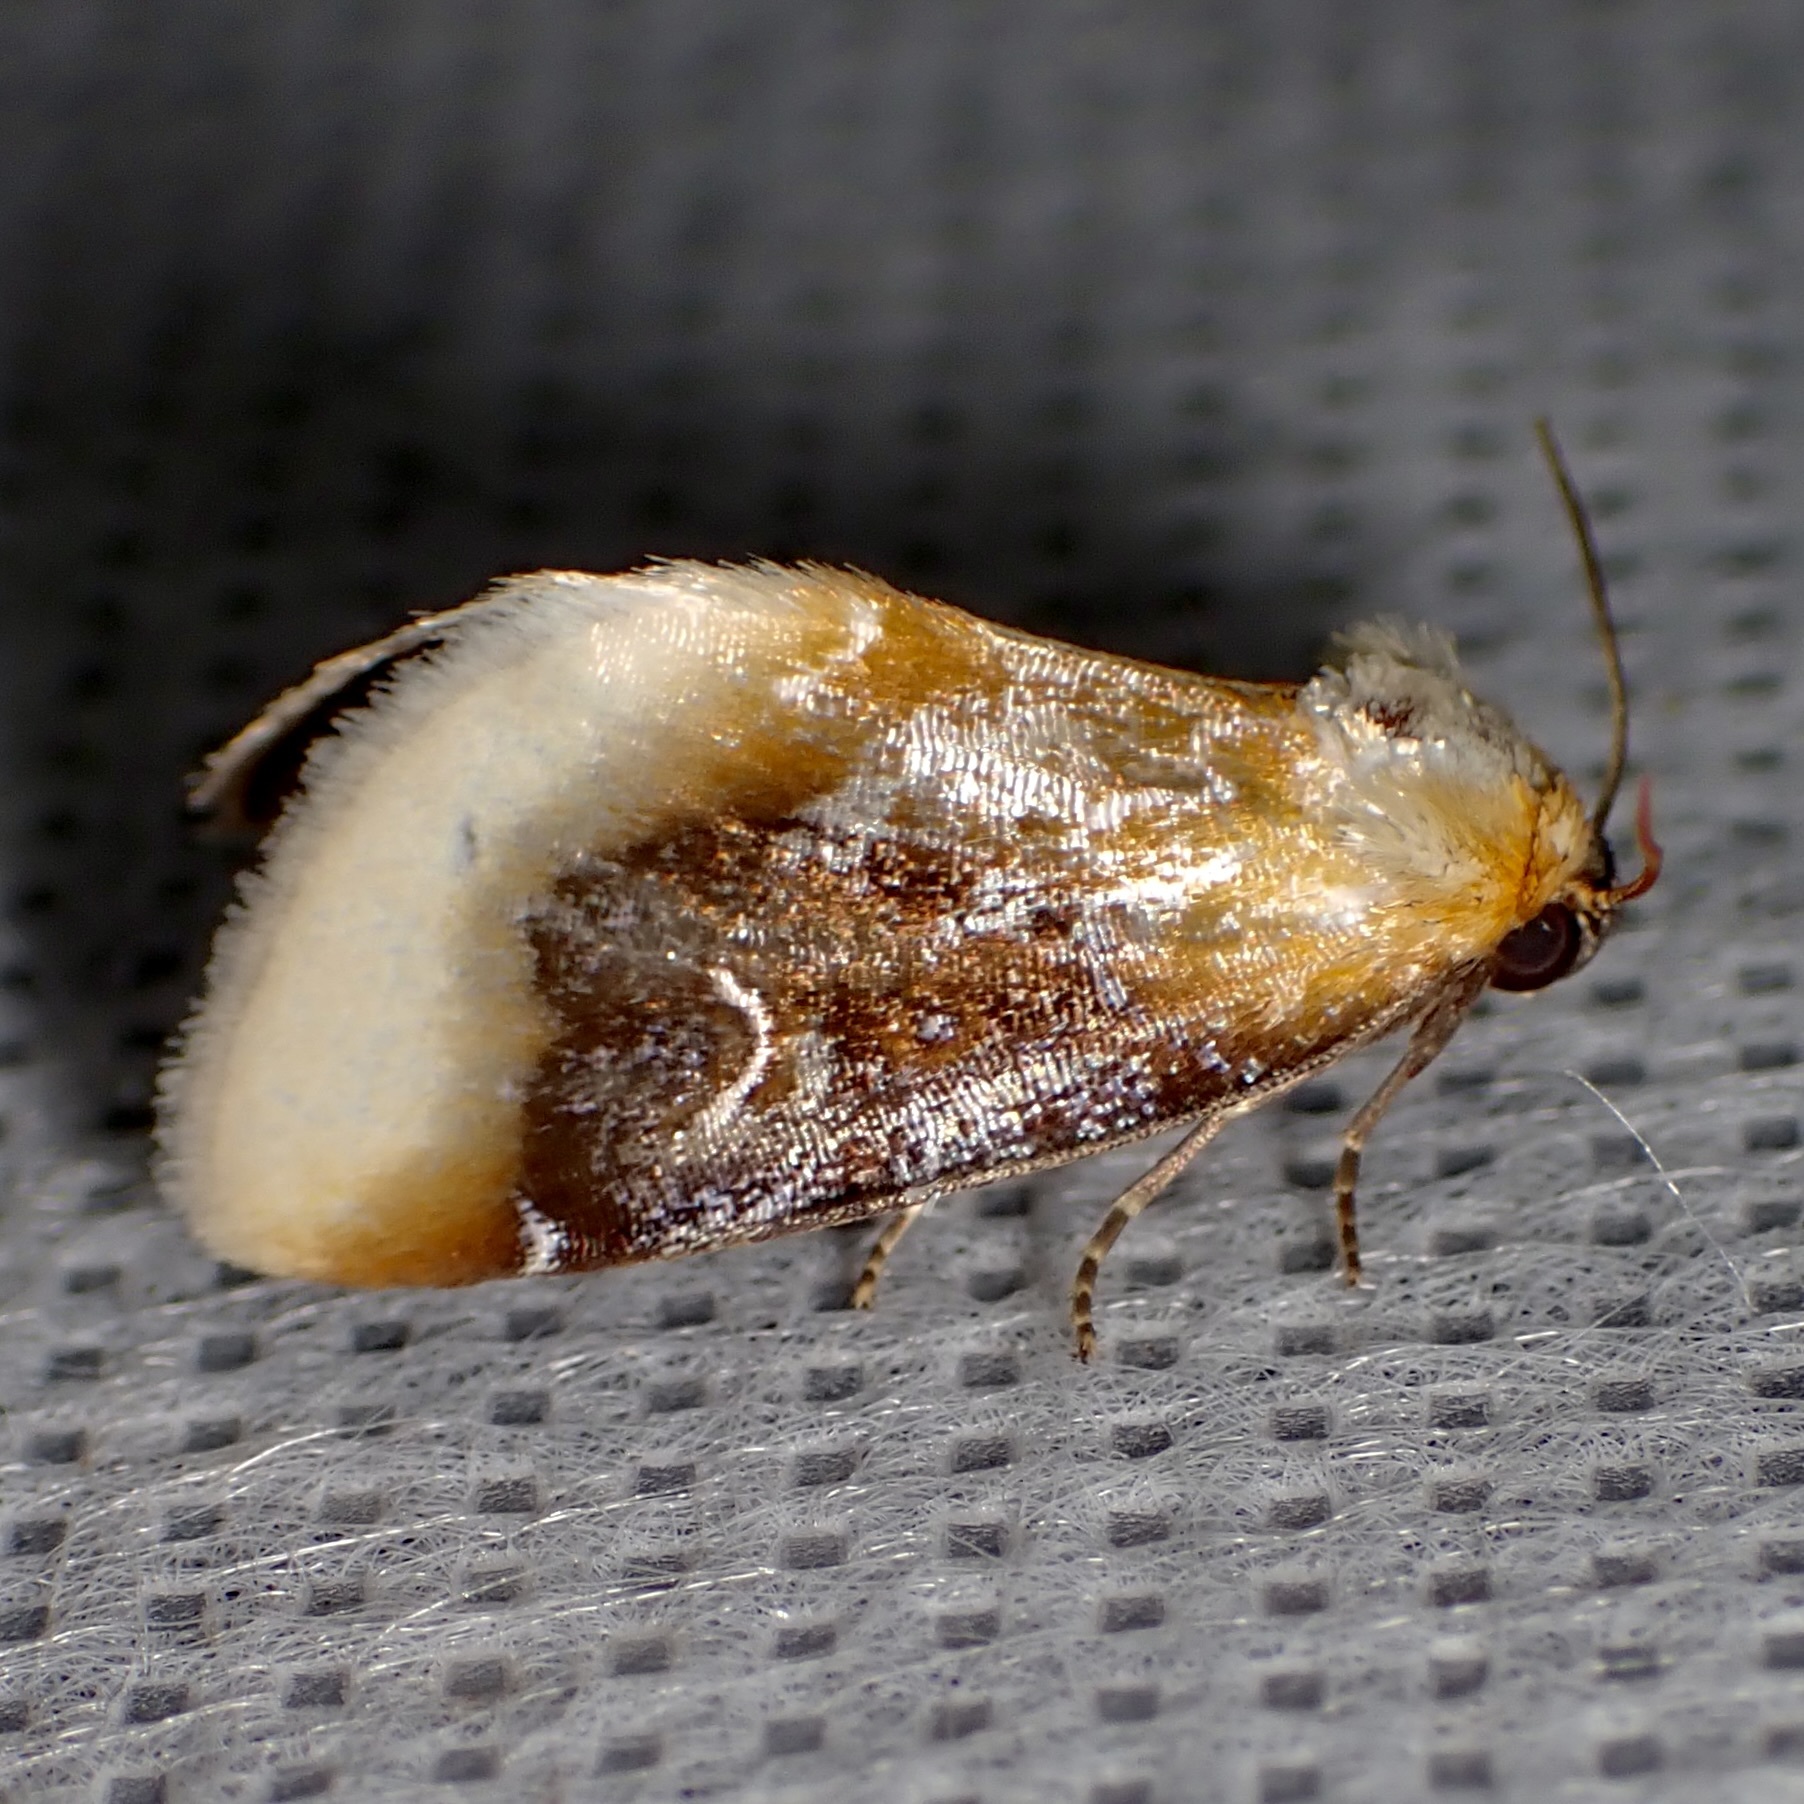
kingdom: Animalia
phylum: Arthropoda
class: Insecta
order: Lepidoptera
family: Noctuidae
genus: Chrysoecia
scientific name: Chrysoecia scira
